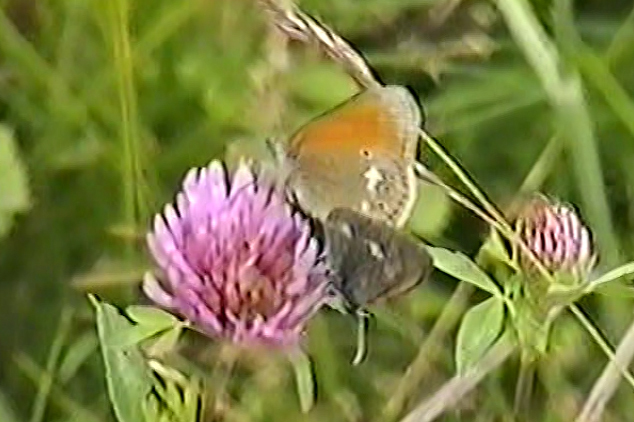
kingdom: Animalia
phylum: Arthropoda
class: Insecta
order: Lepidoptera
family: Nymphalidae
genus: Coenonympha
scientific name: Coenonympha iphis
